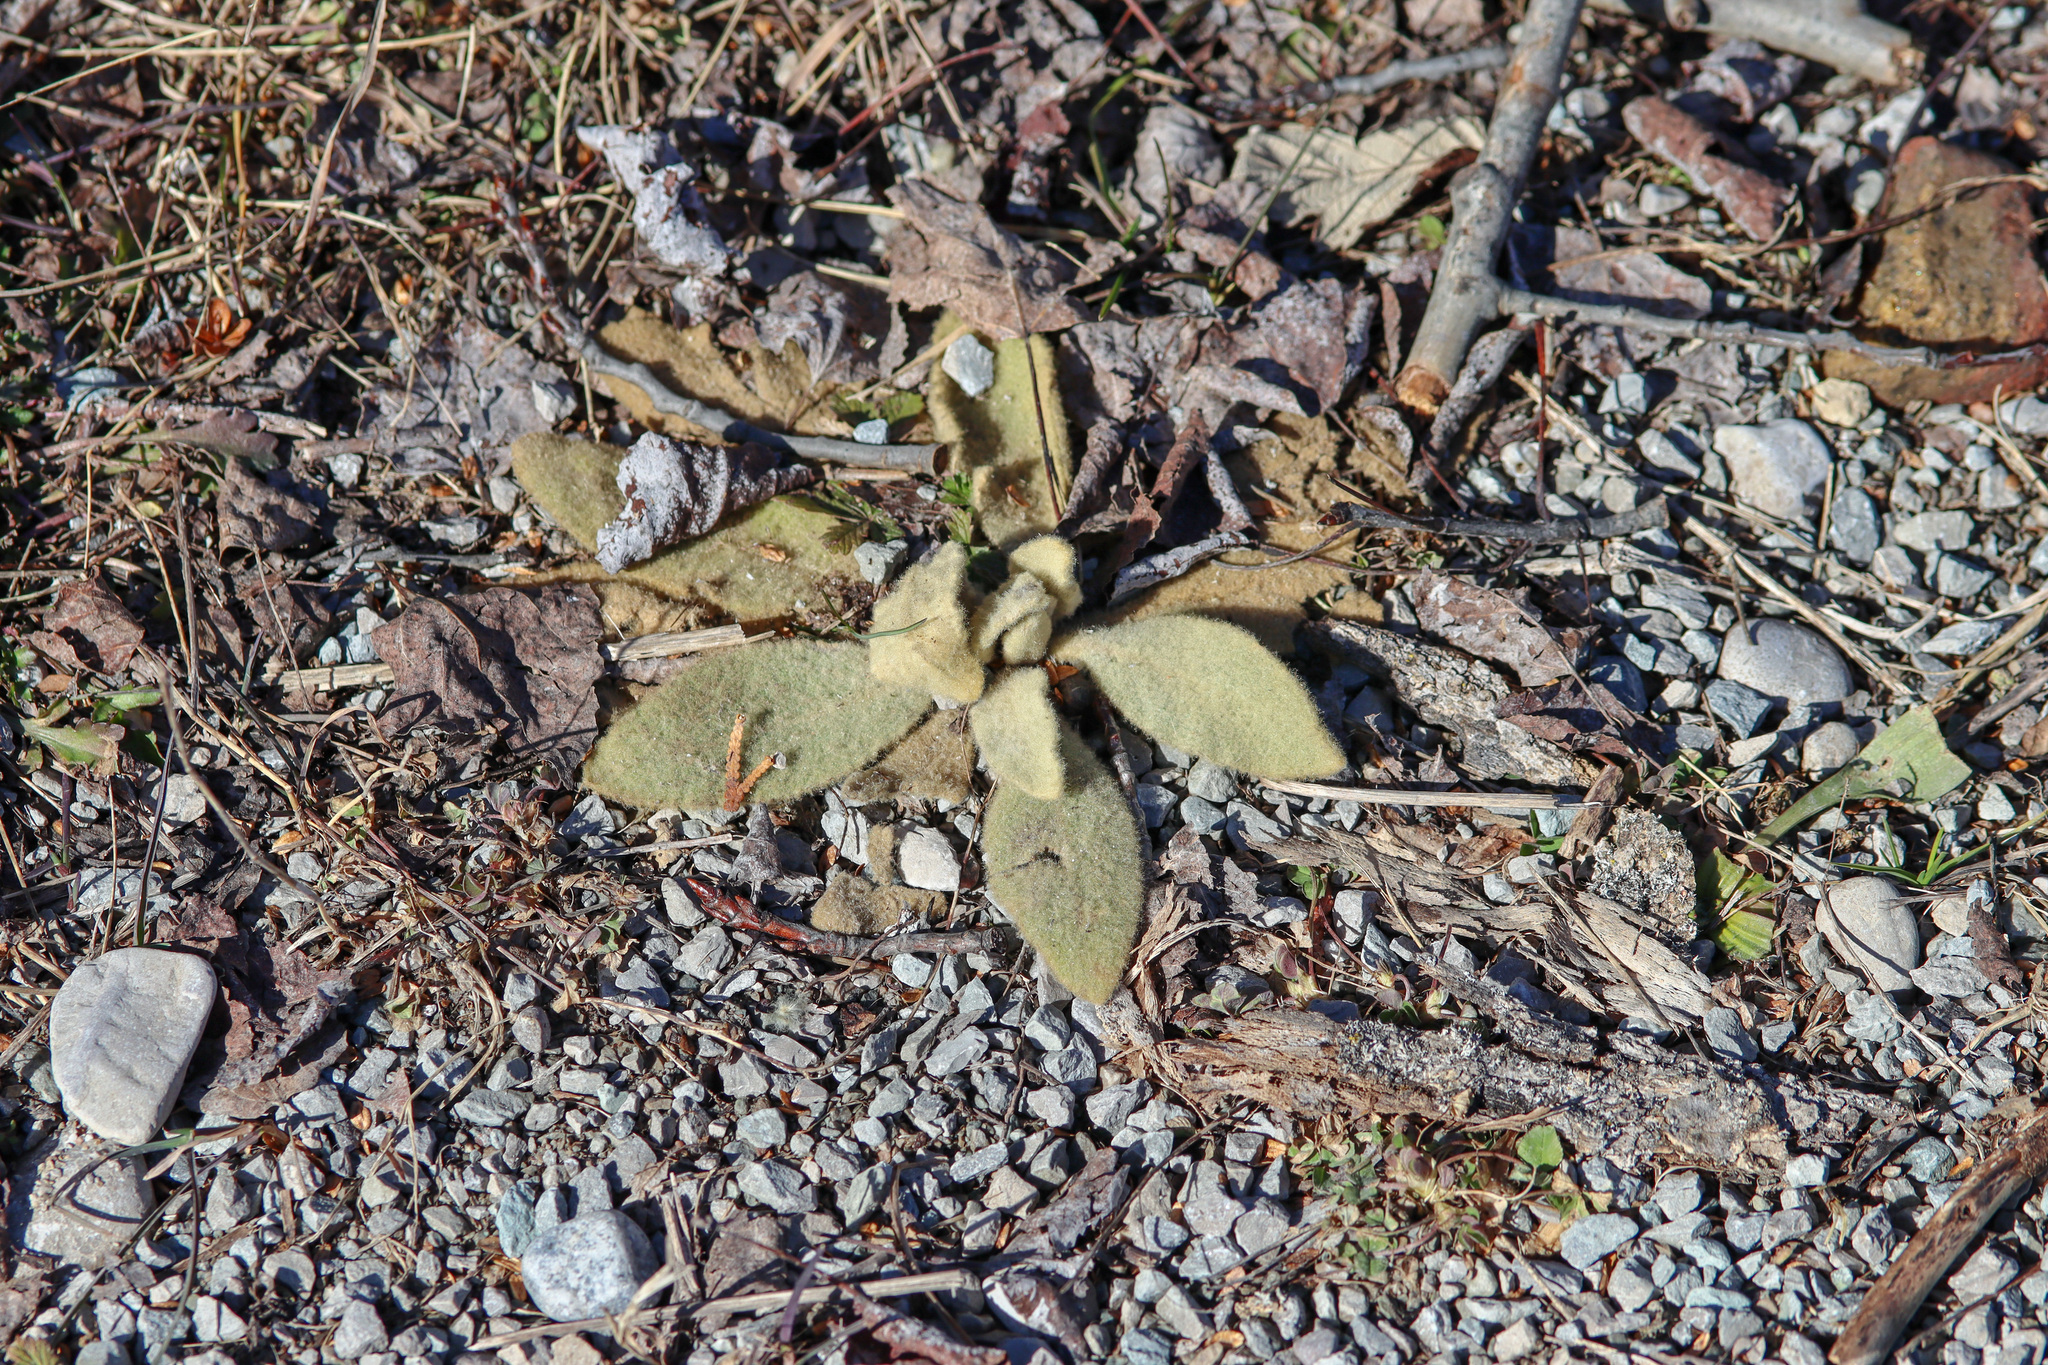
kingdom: Plantae
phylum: Tracheophyta
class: Magnoliopsida
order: Lamiales
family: Scrophulariaceae
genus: Verbascum
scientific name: Verbascum thapsus
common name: Common mullein
